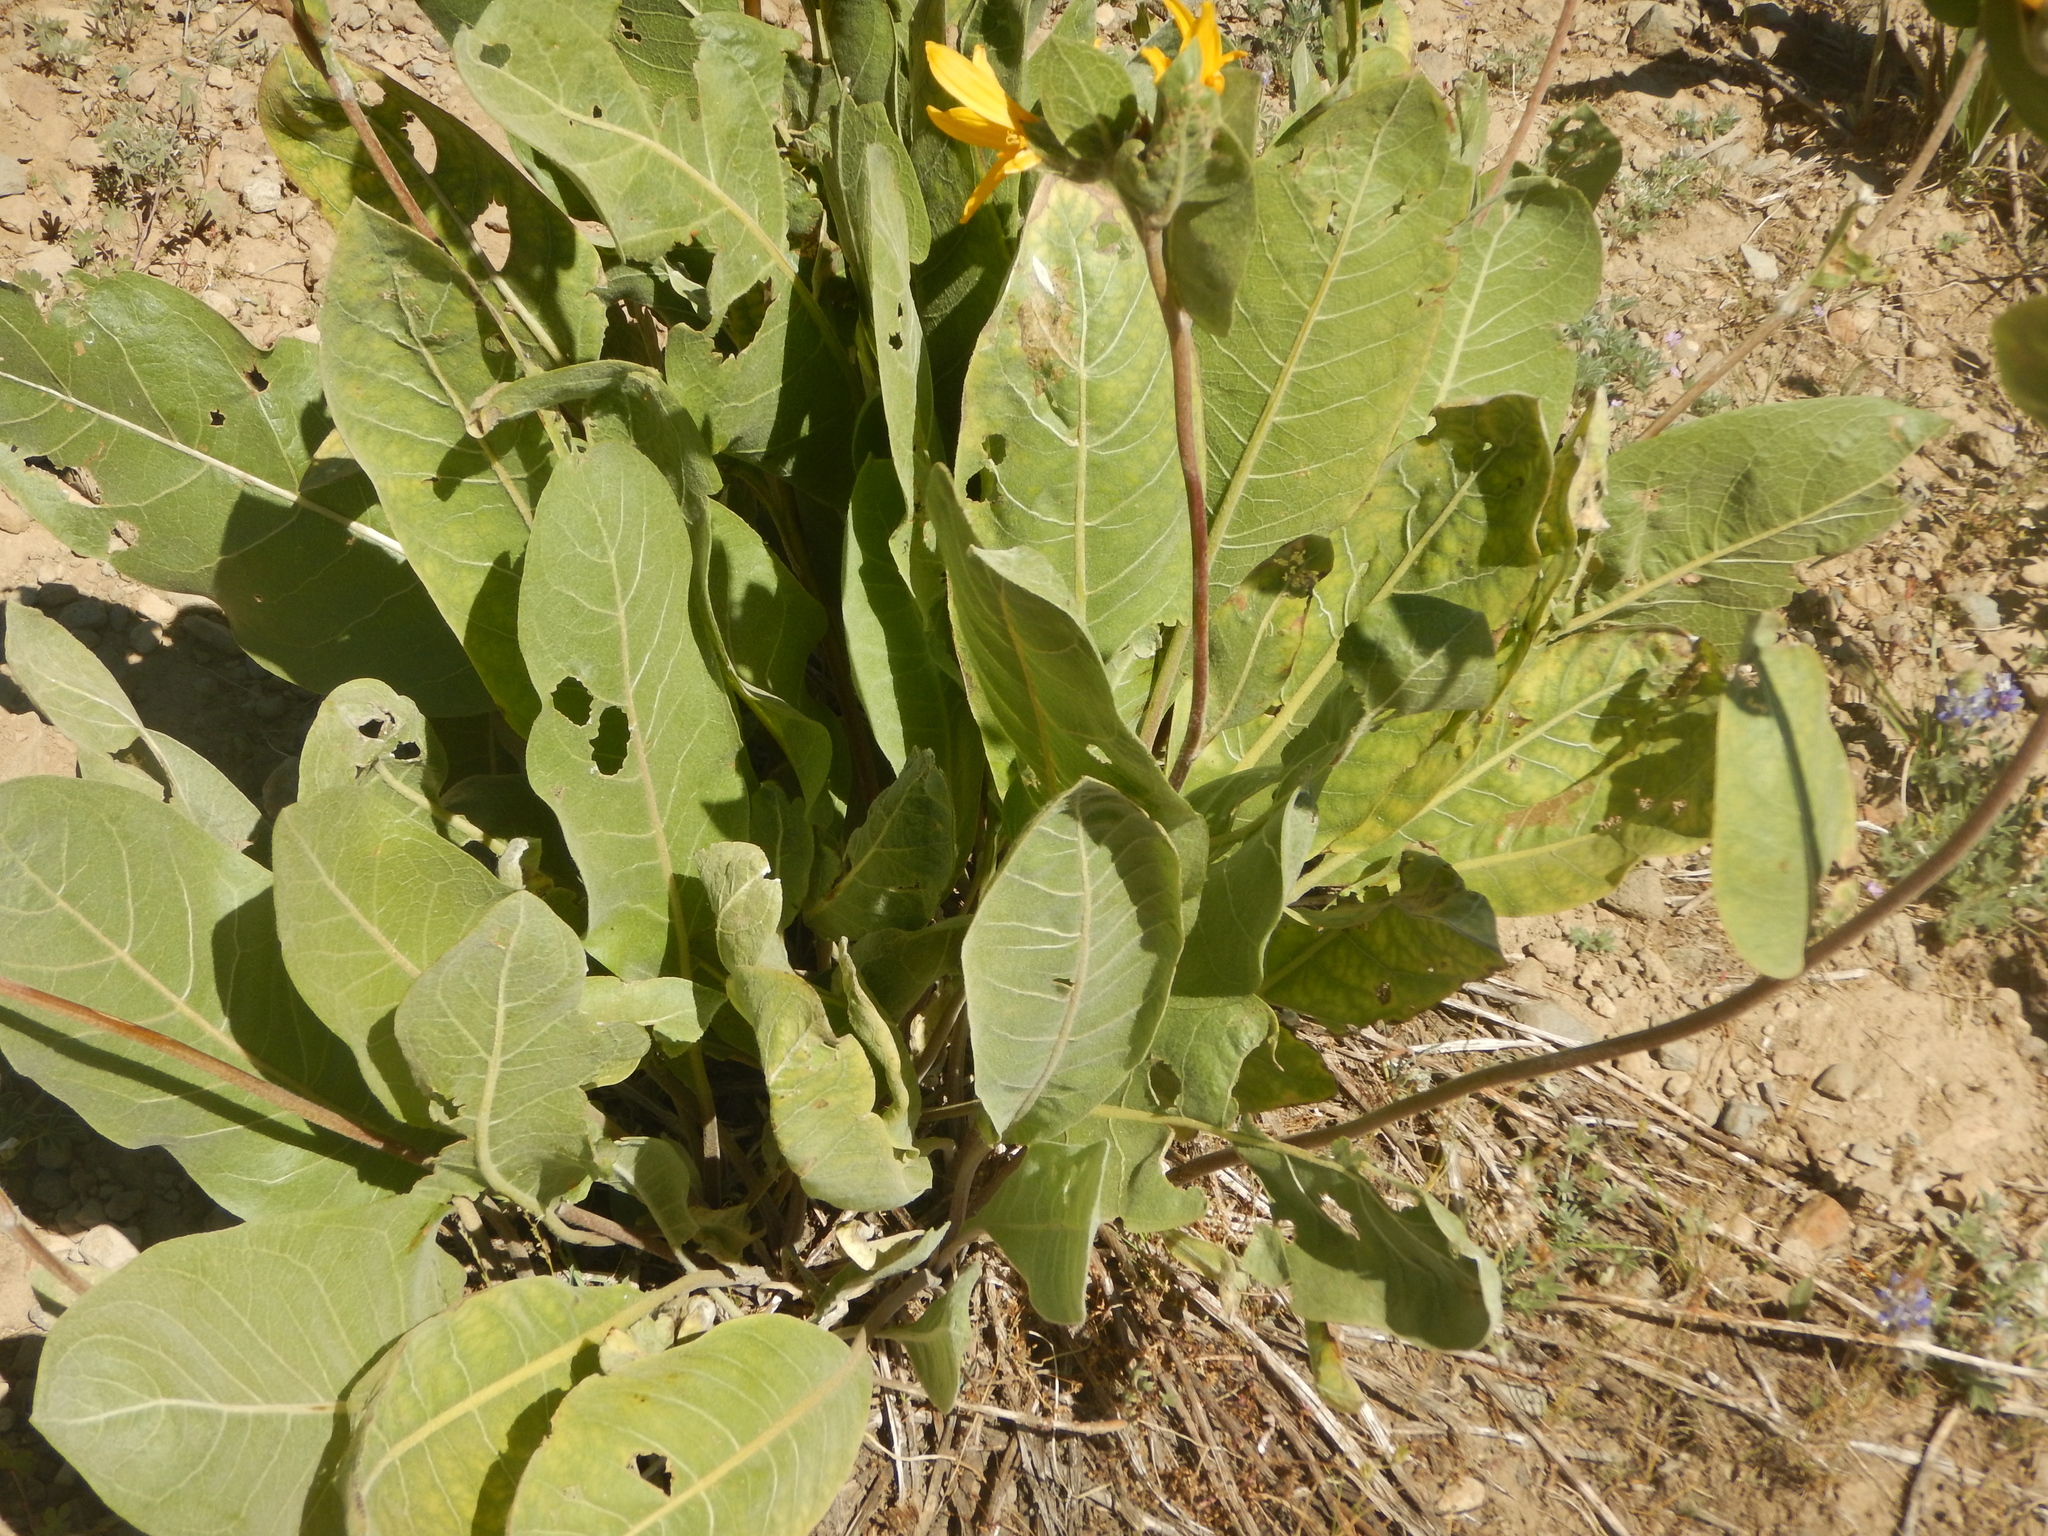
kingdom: Plantae
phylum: Tracheophyta
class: Magnoliopsida
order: Asterales
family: Asteraceae
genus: Wyethia
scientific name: Wyethia mollis
